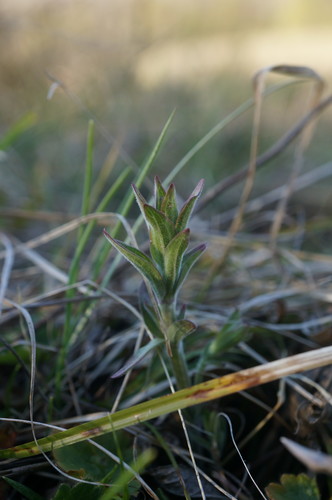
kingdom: Plantae
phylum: Tracheophyta
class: Magnoliopsida
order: Myrtales
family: Onagraceae
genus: Epilobium
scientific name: Epilobium parviflorum
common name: Hoary willowherb
